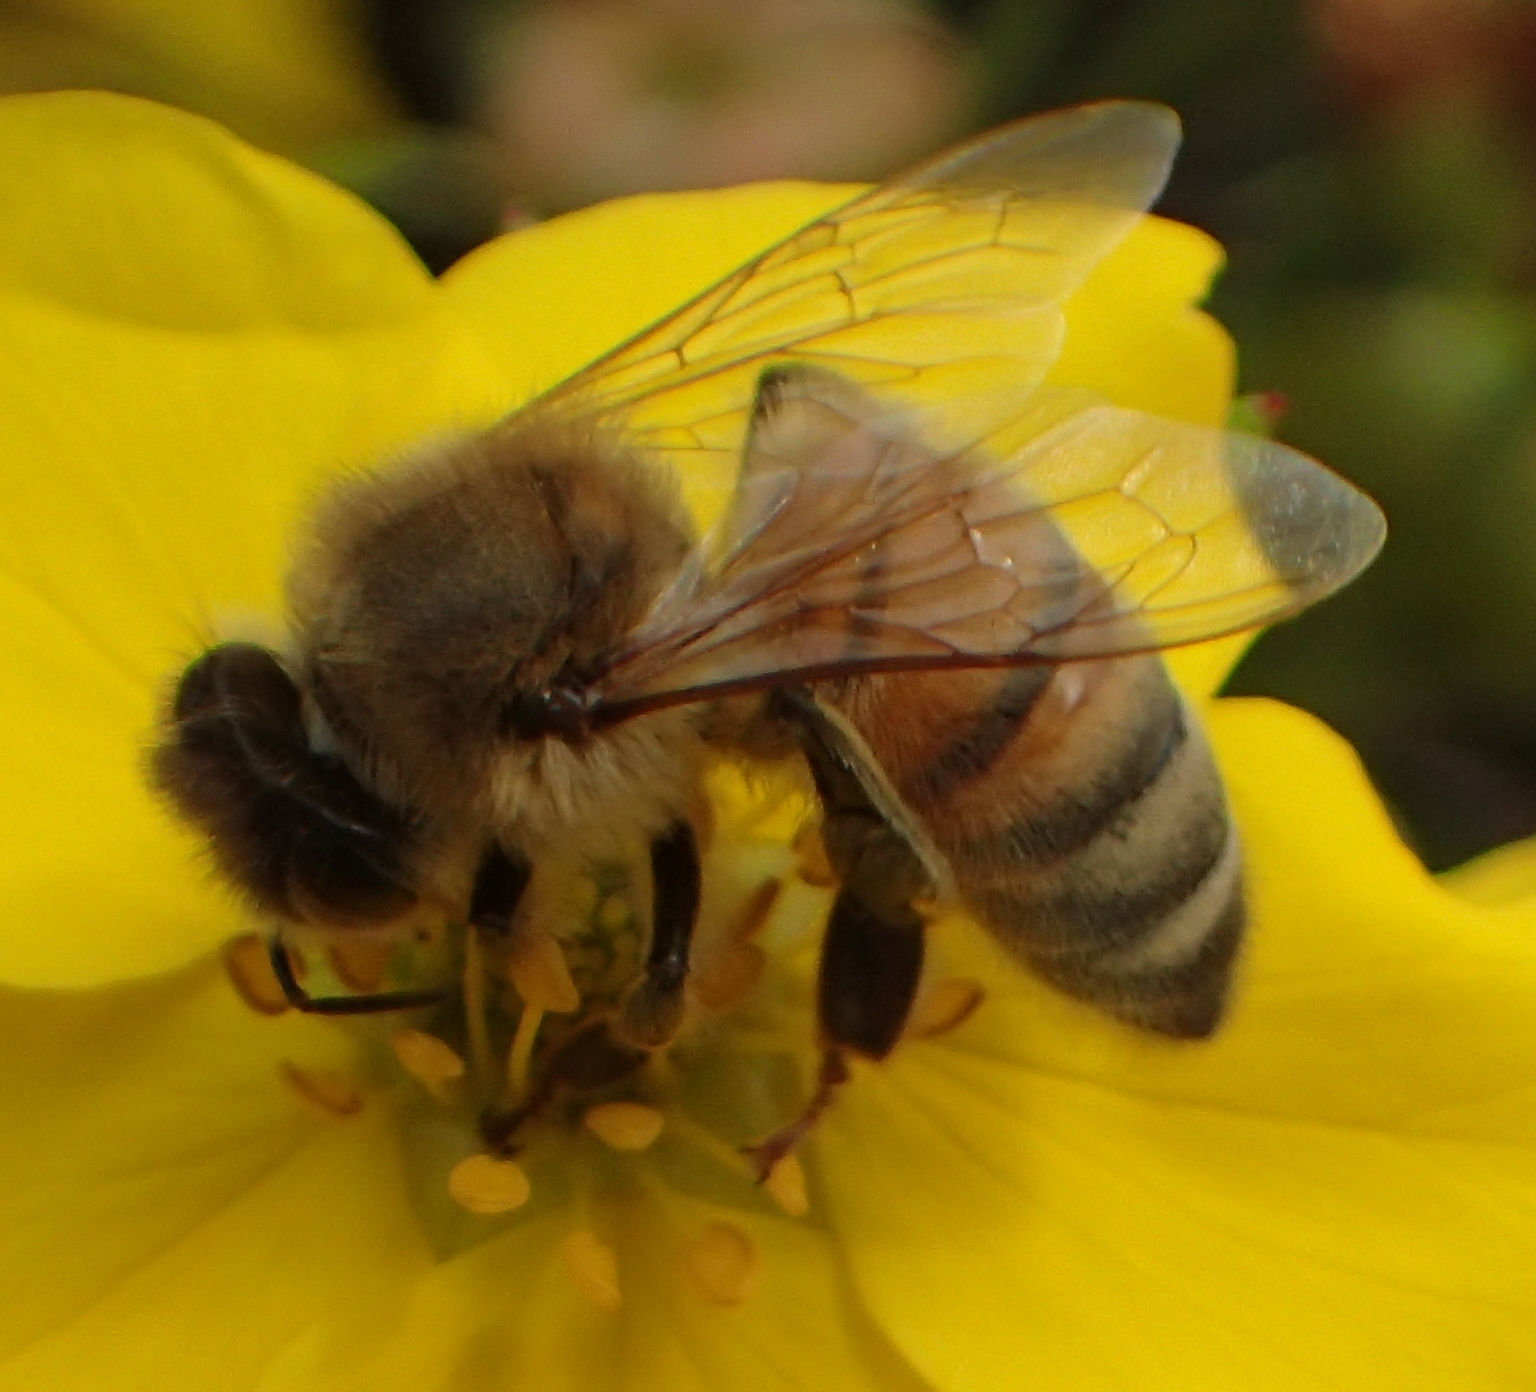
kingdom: Animalia
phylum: Arthropoda
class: Insecta
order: Hymenoptera
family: Apidae
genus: Apis
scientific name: Apis mellifera
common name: Honey bee
